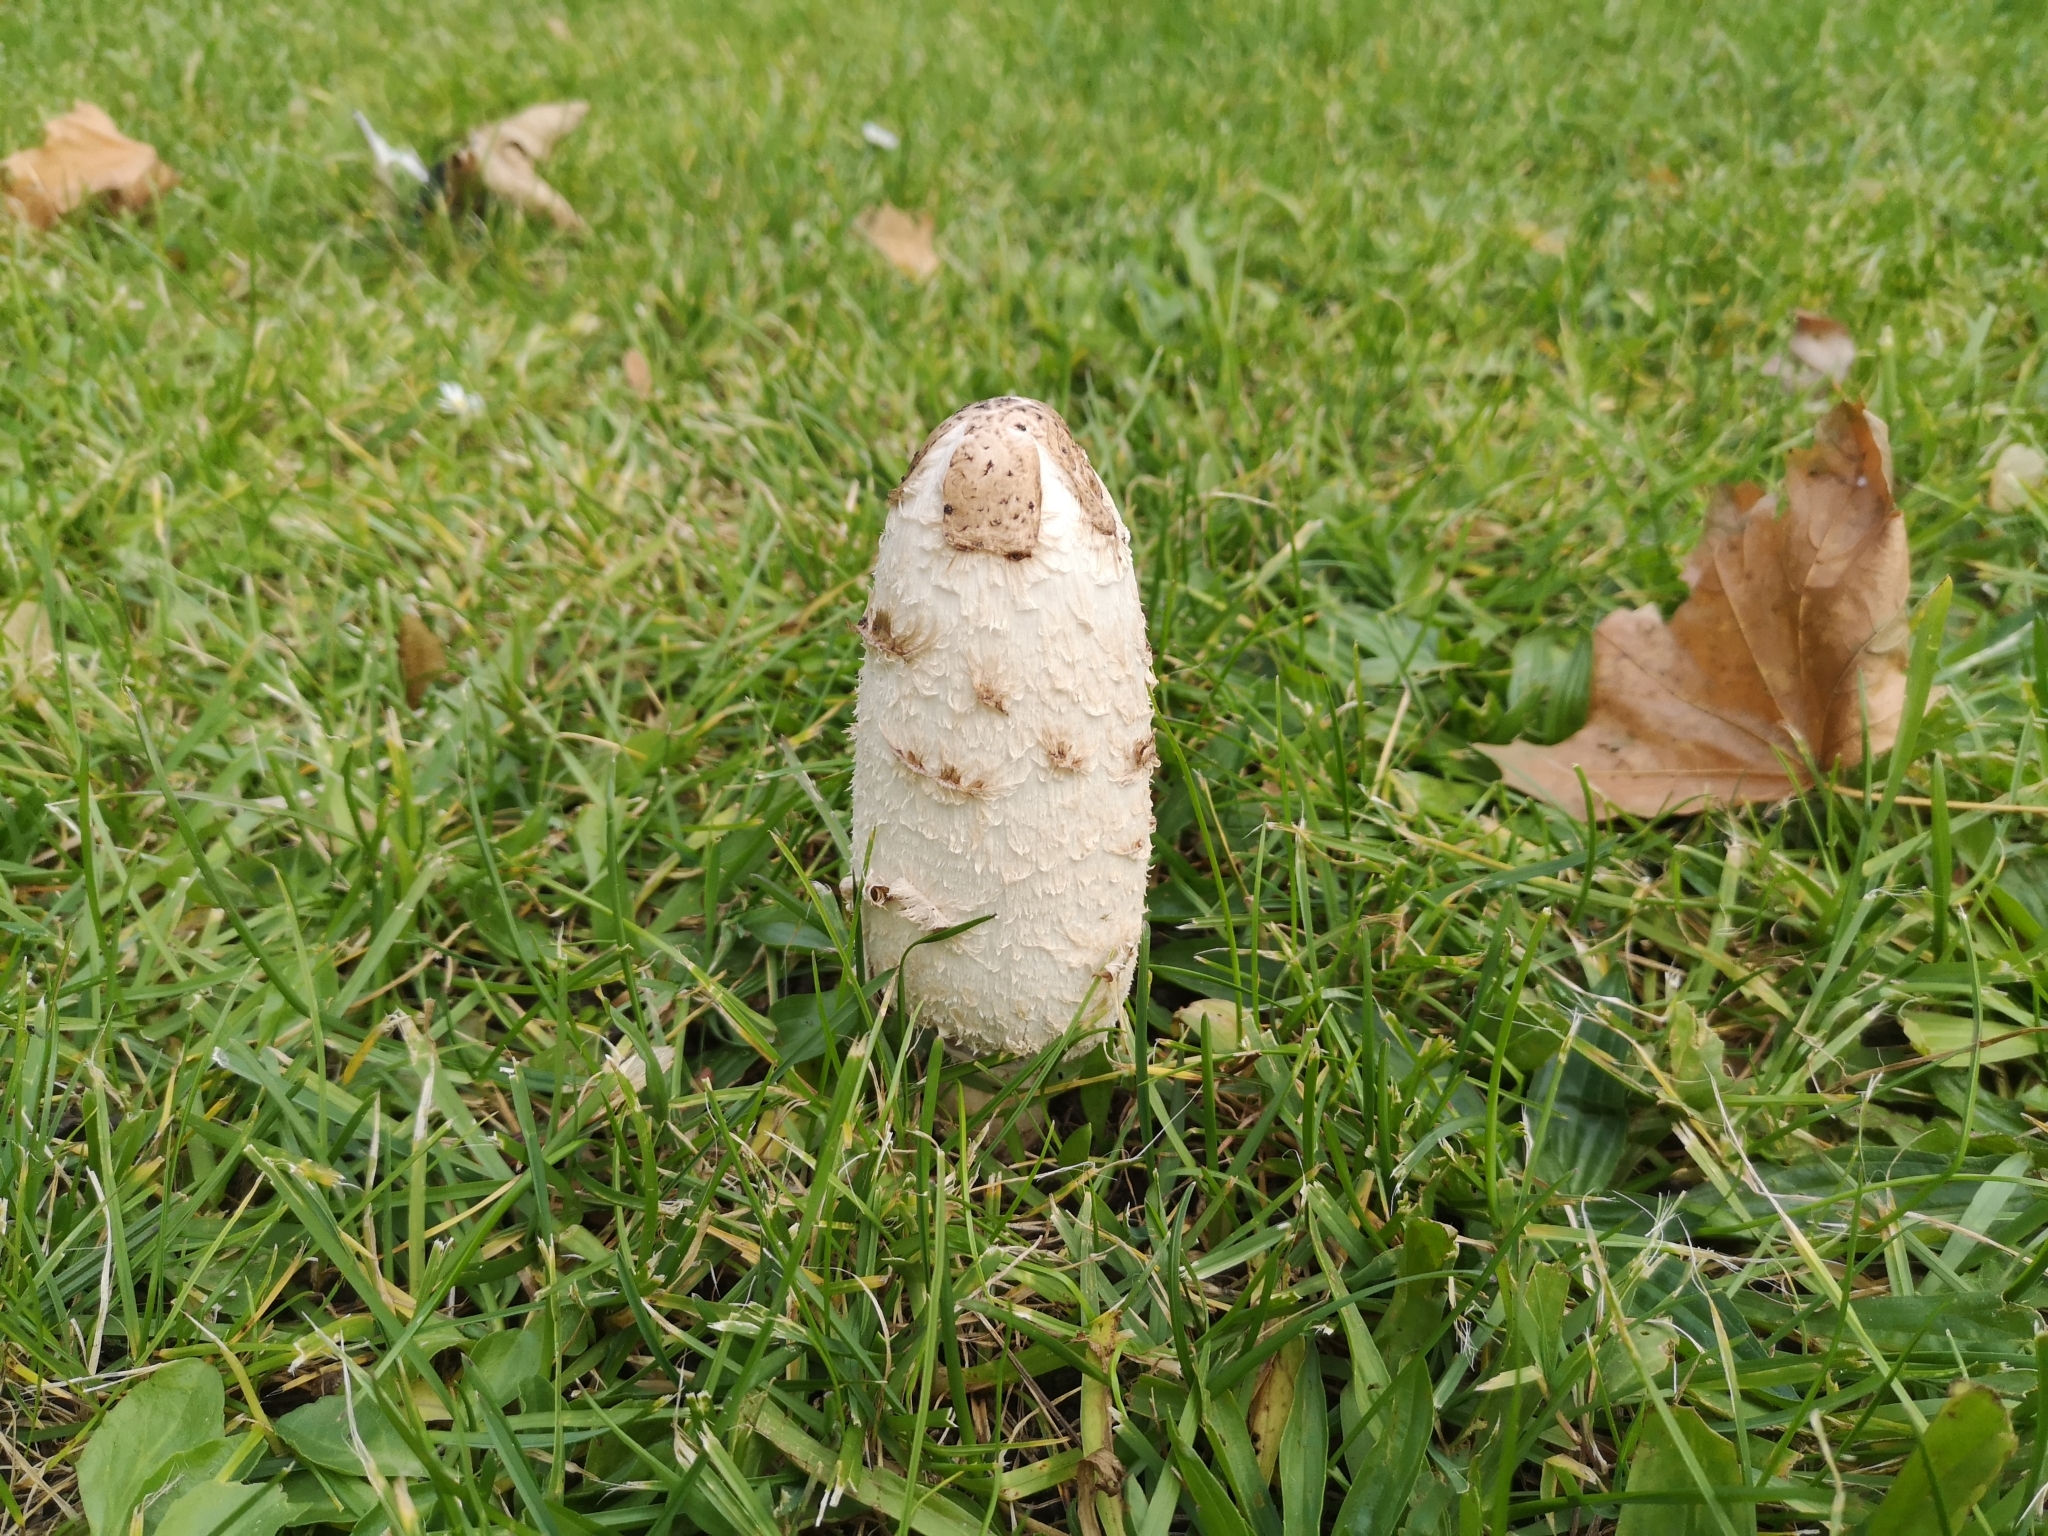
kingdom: Fungi
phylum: Basidiomycota
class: Agaricomycetes
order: Agaricales
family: Agaricaceae
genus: Coprinus
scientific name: Coprinus comatus
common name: Lawyer's wig
